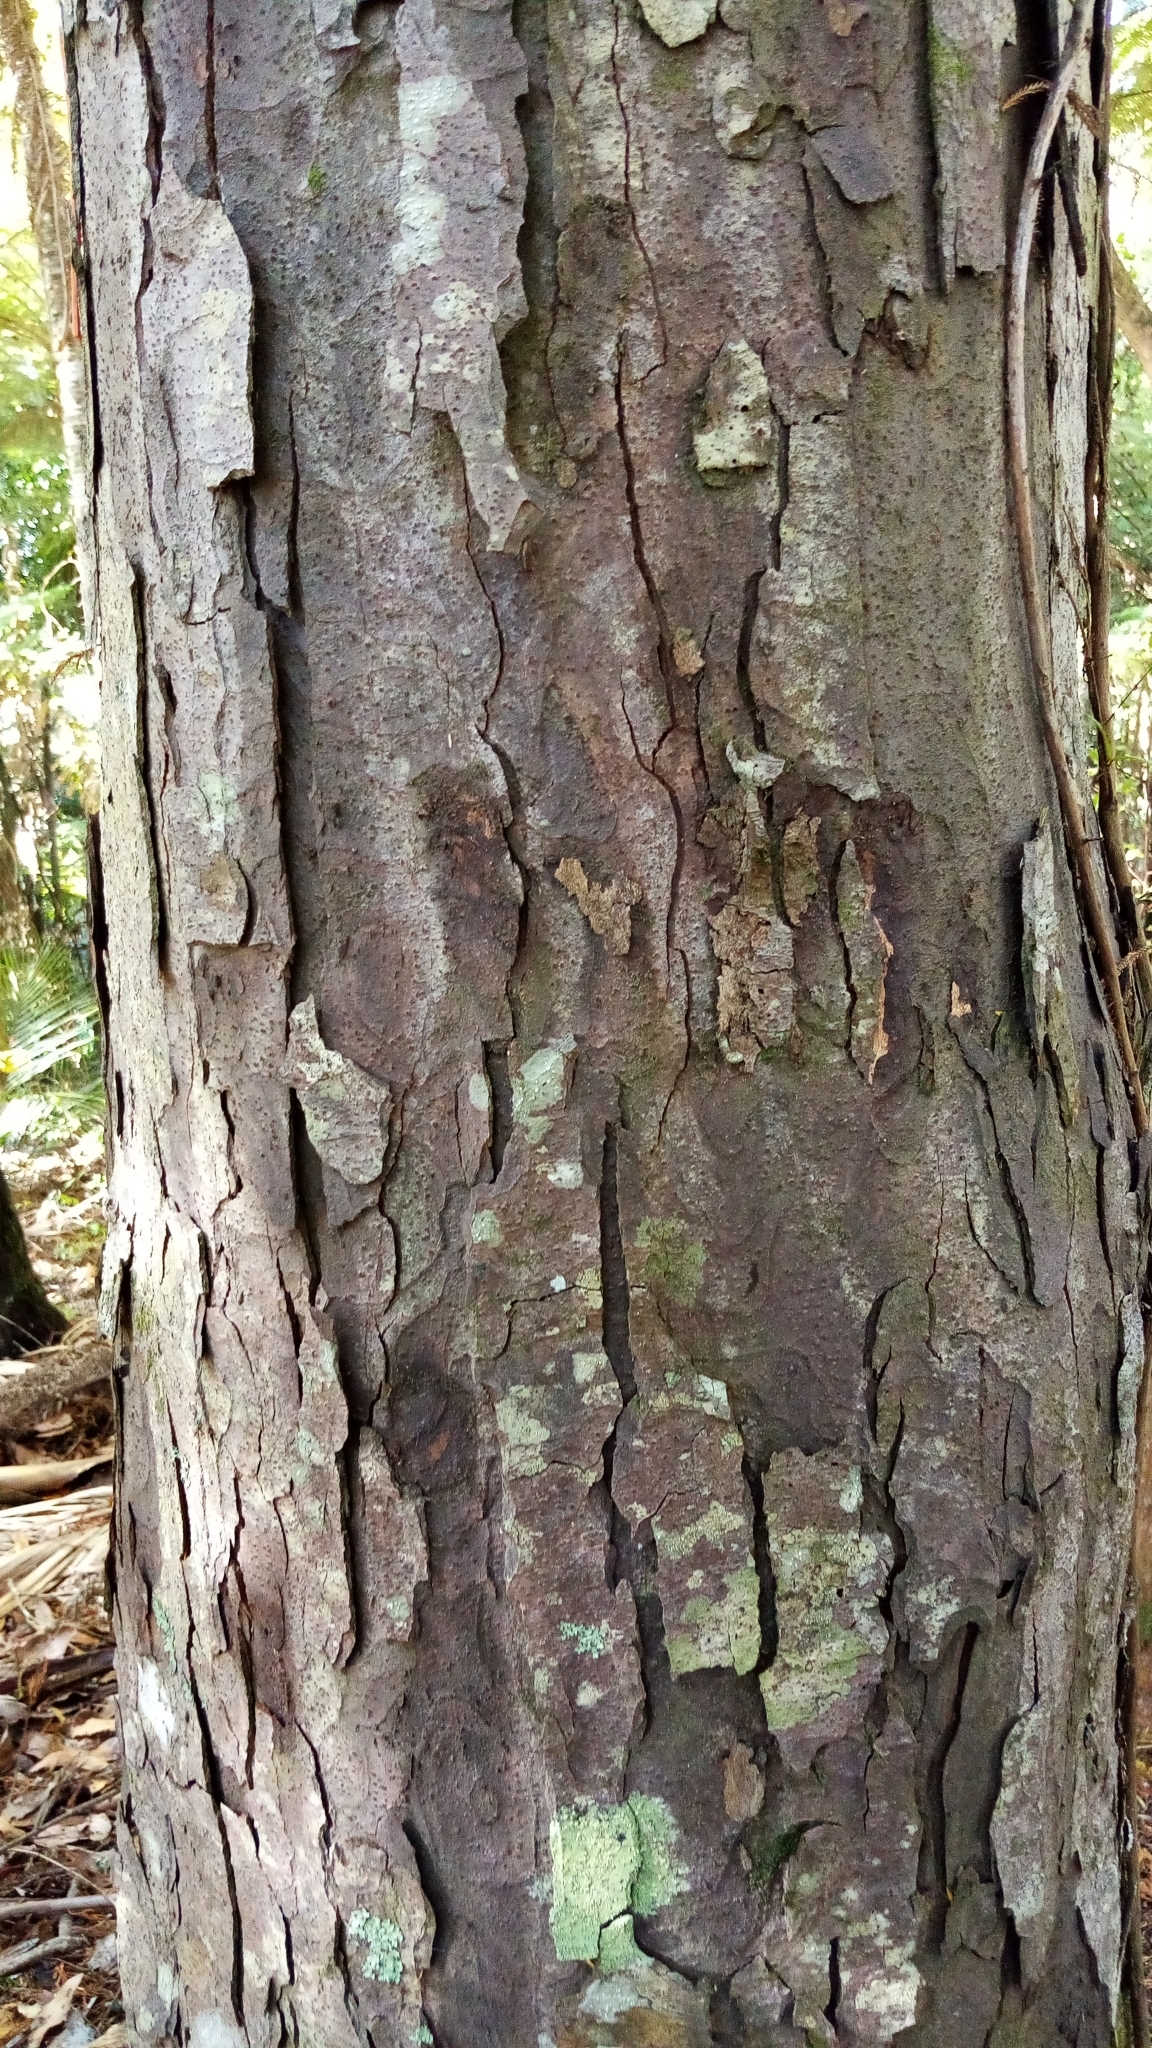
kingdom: Plantae
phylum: Tracheophyta
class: Pinopsida
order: Pinales
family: Podocarpaceae
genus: Dacrydium
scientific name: Dacrydium cupressinum
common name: Red pine
